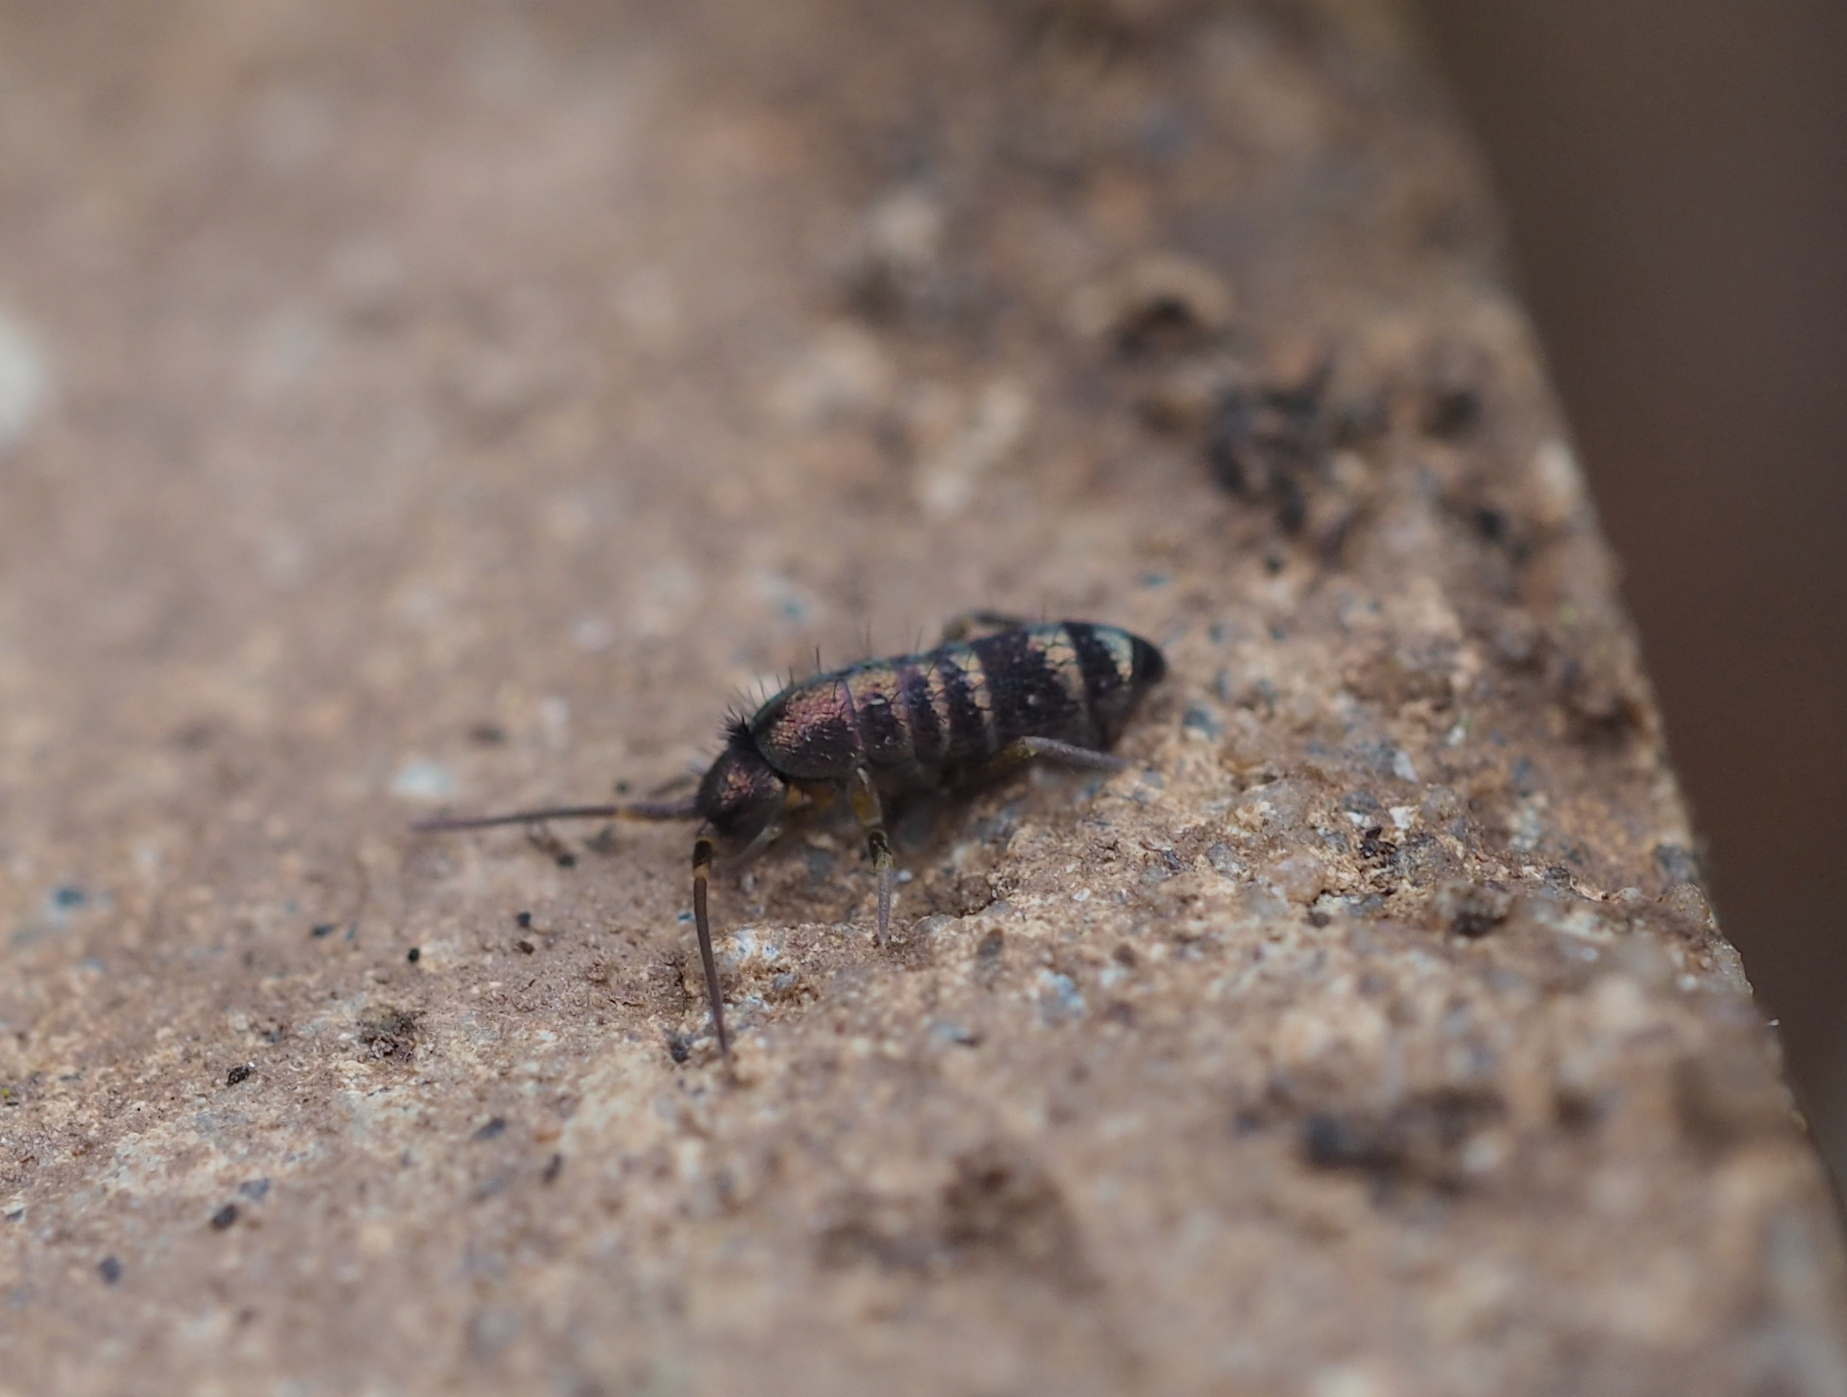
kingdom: Animalia
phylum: Arthropoda
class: Collembola
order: Entomobryomorpha
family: Tomoceridae
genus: Tomocerus
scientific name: Tomocerus vulgaris
